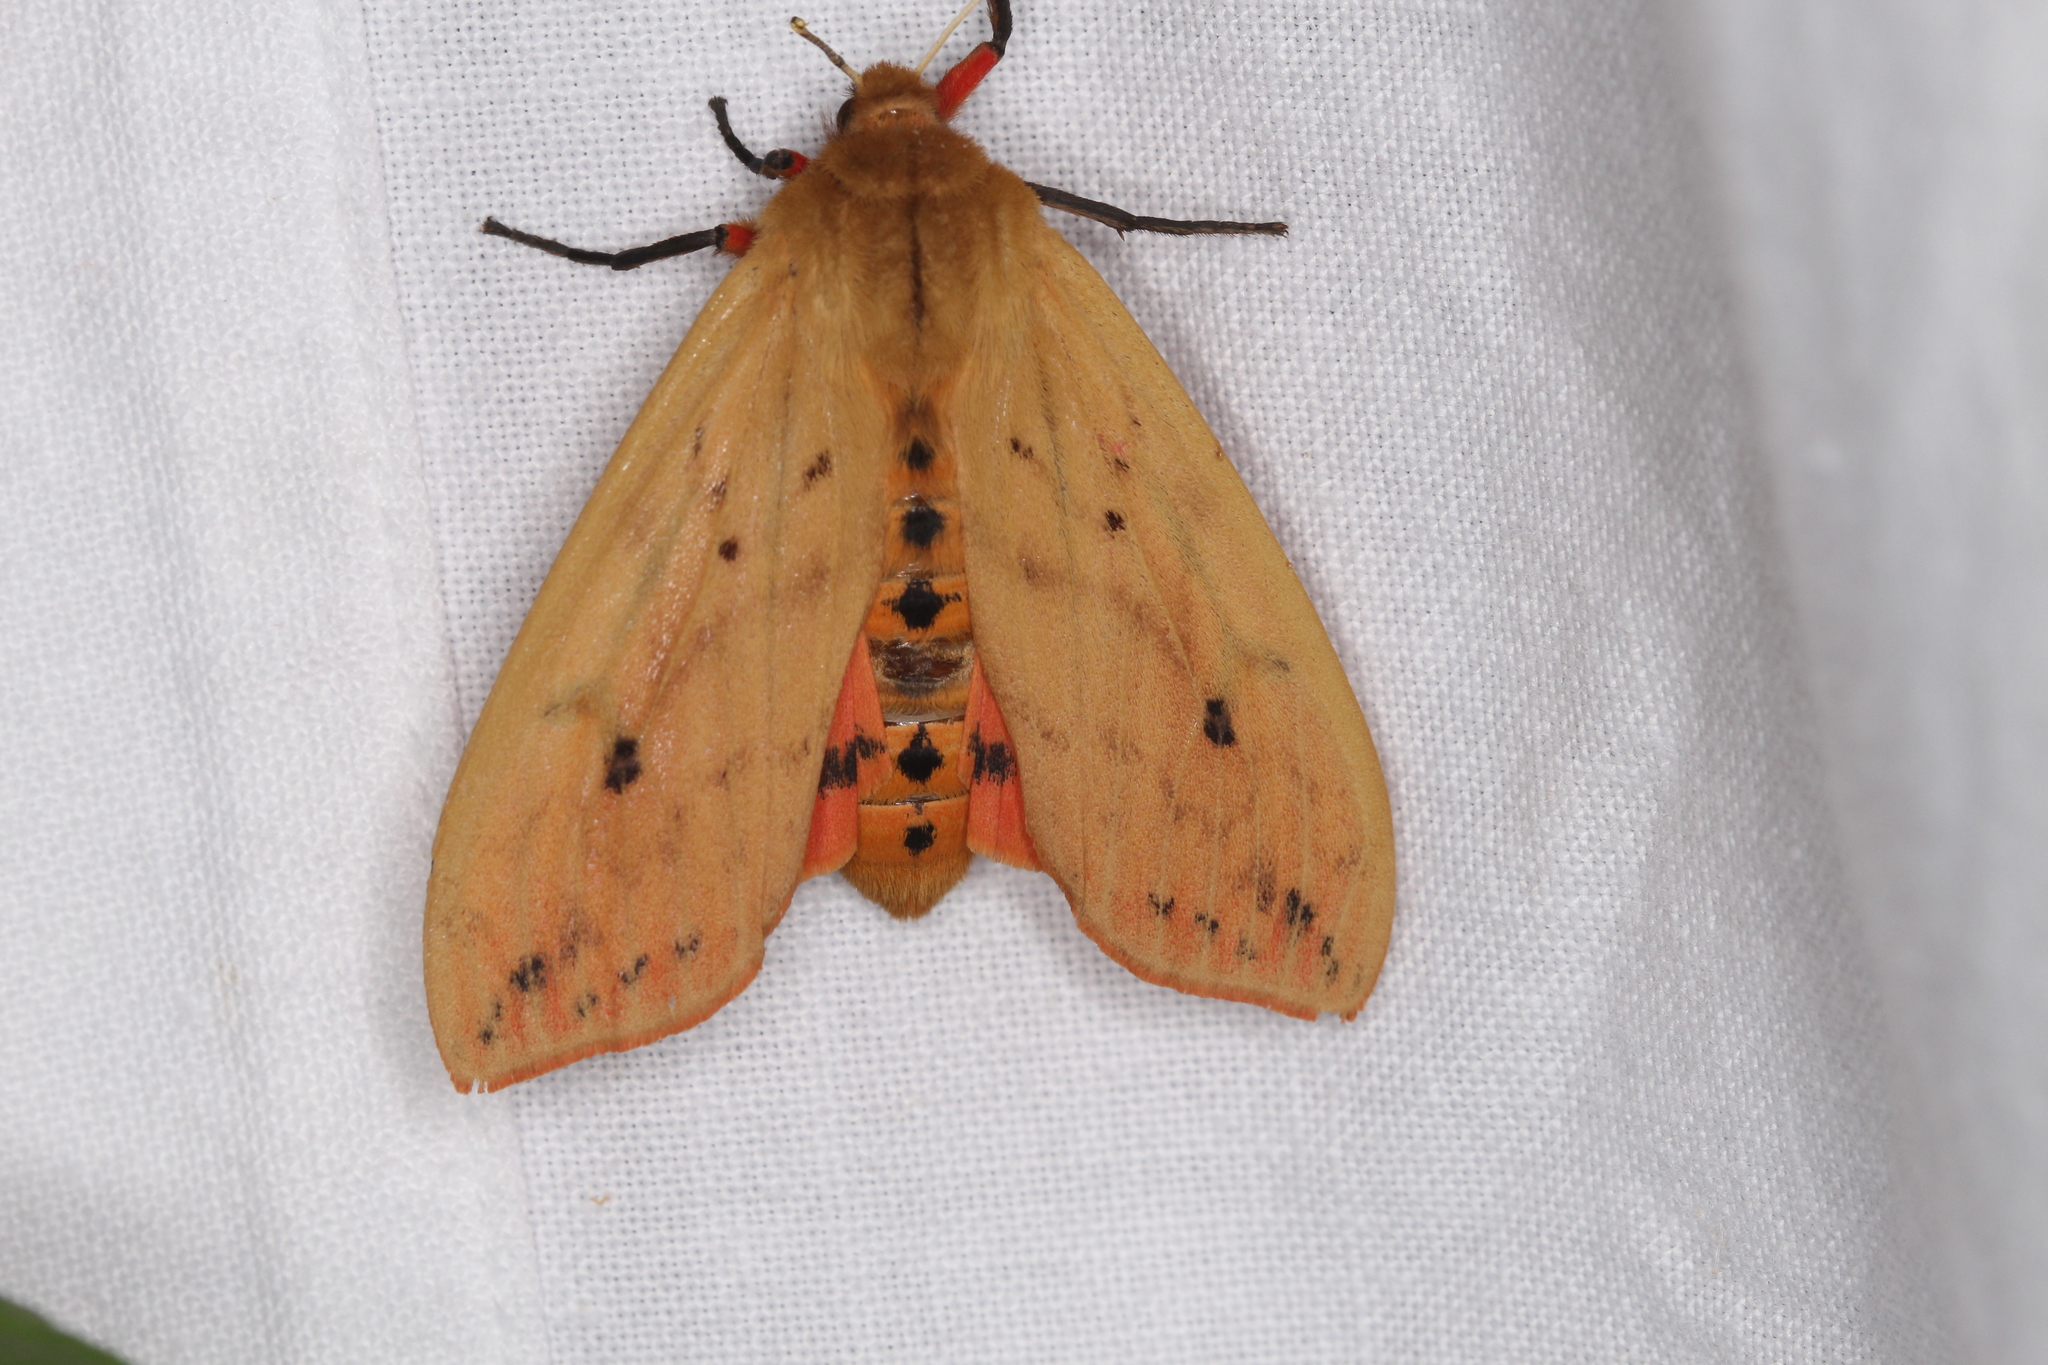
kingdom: Animalia
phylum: Arthropoda
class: Insecta
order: Lepidoptera
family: Erebidae
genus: Pyrrharctia
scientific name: Pyrrharctia isabella
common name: Isabella tiger moth
